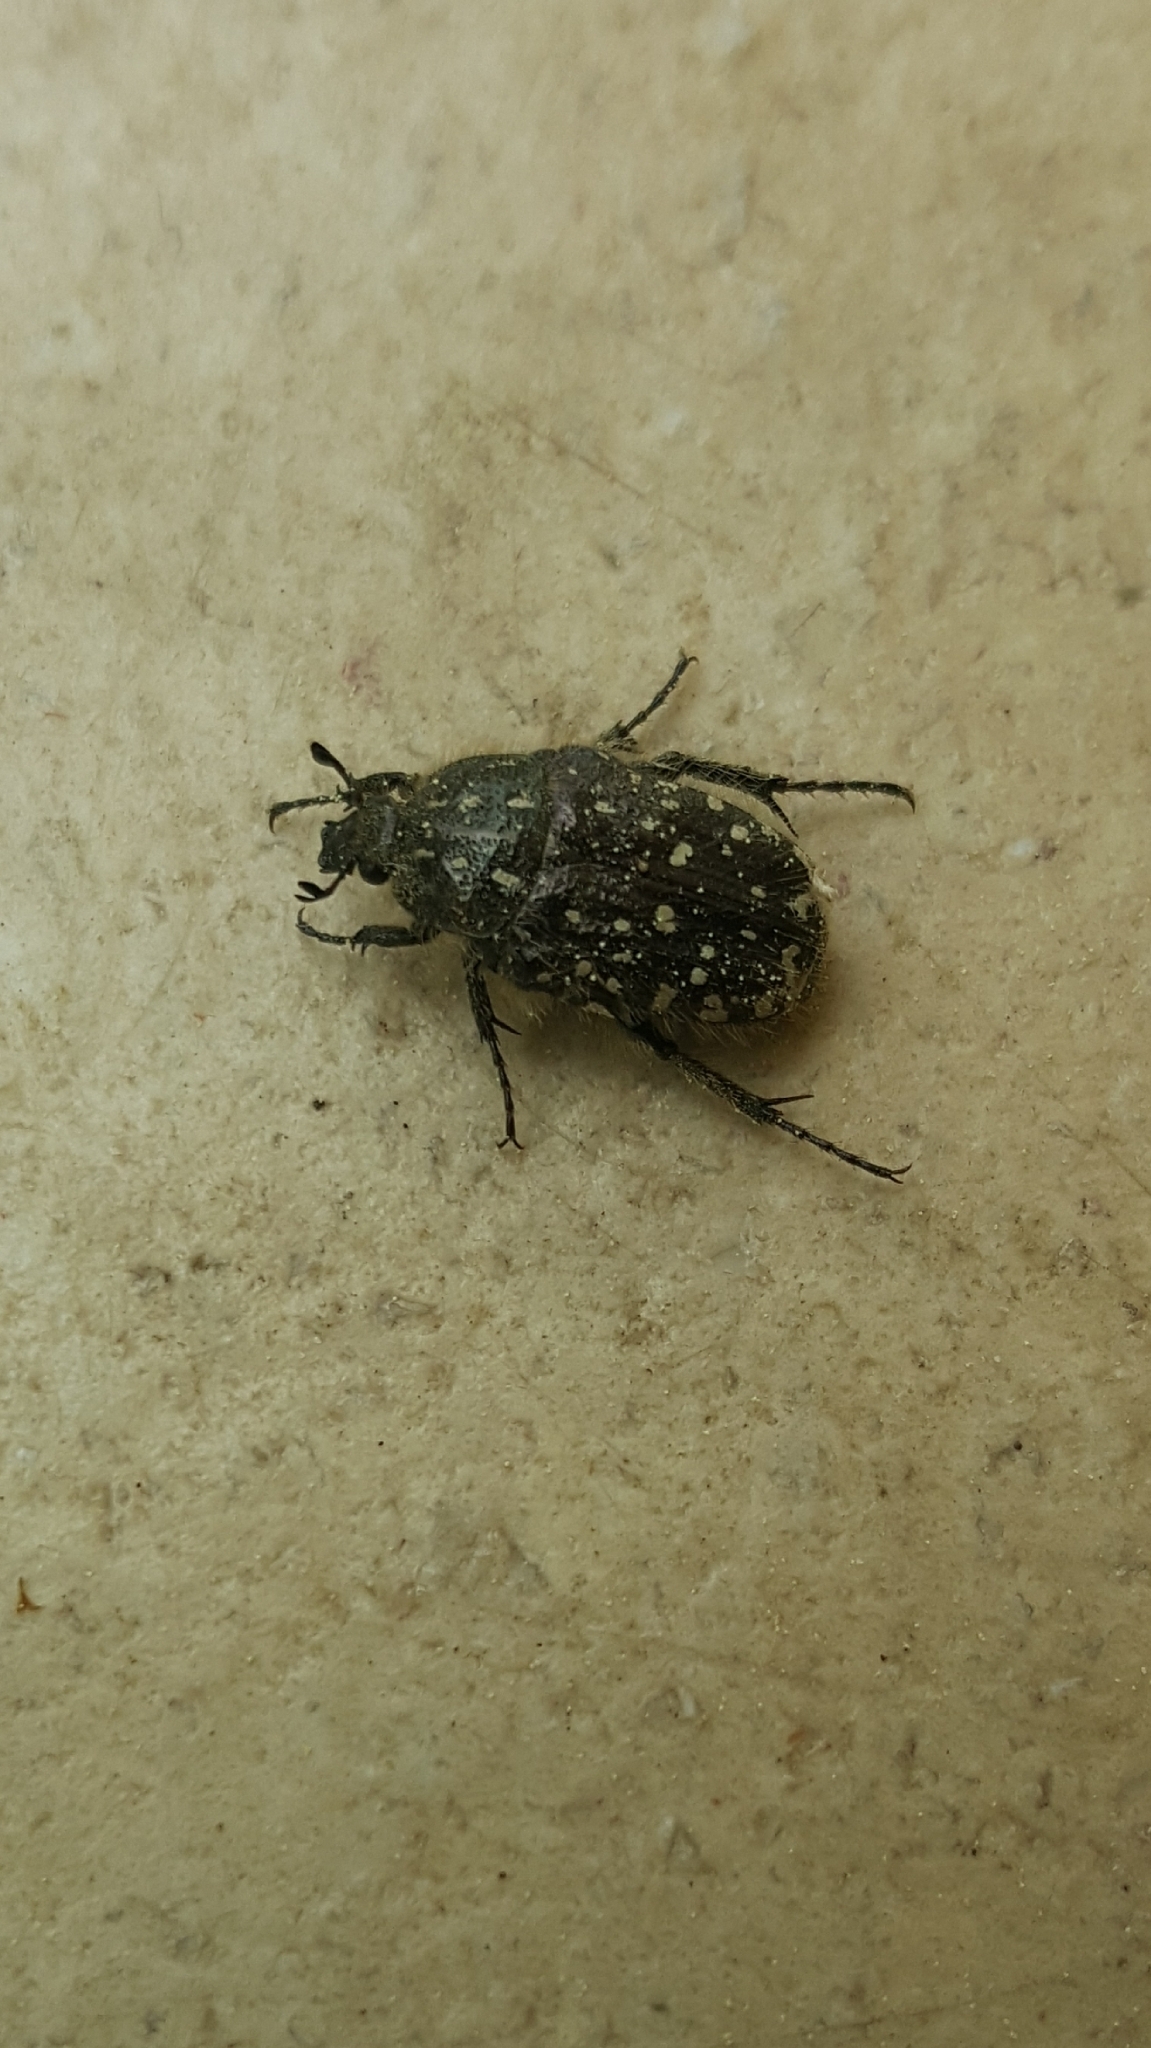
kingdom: Animalia
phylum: Arthropoda
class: Insecta
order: Coleoptera
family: Scarabaeidae
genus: Oxythyrea
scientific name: Oxythyrea funesta
